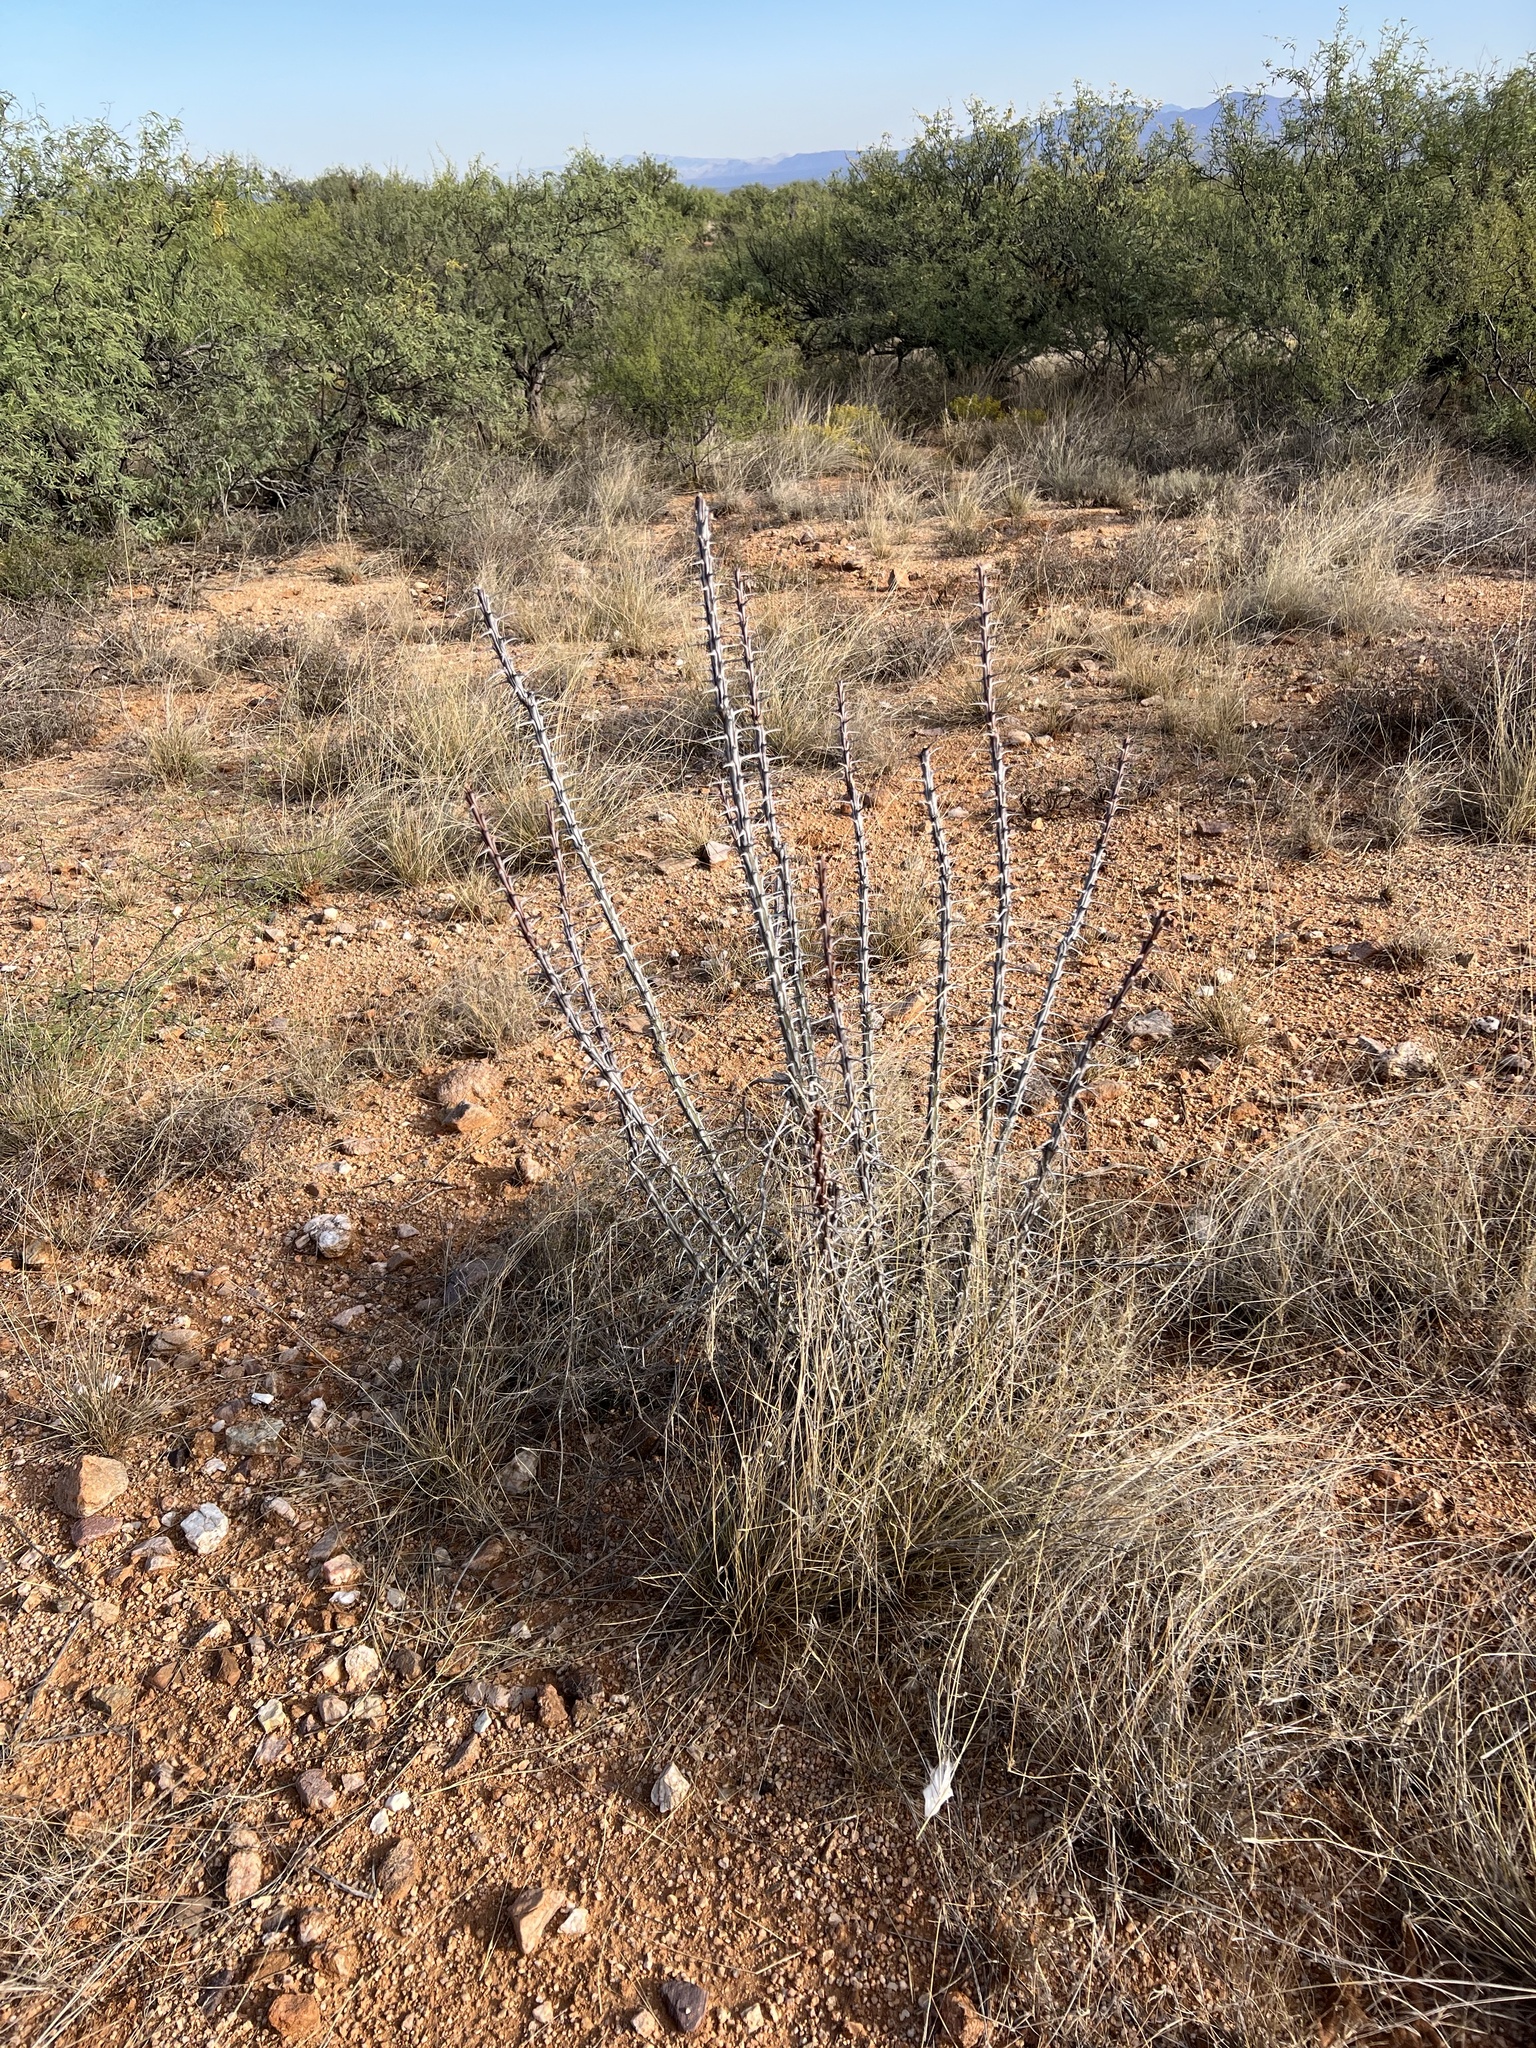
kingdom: Plantae
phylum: Tracheophyta
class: Magnoliopsida
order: Ericales
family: Fouquieriaceae
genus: Fouquieria
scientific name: Fouquieria splendens
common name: Vine-cactus
